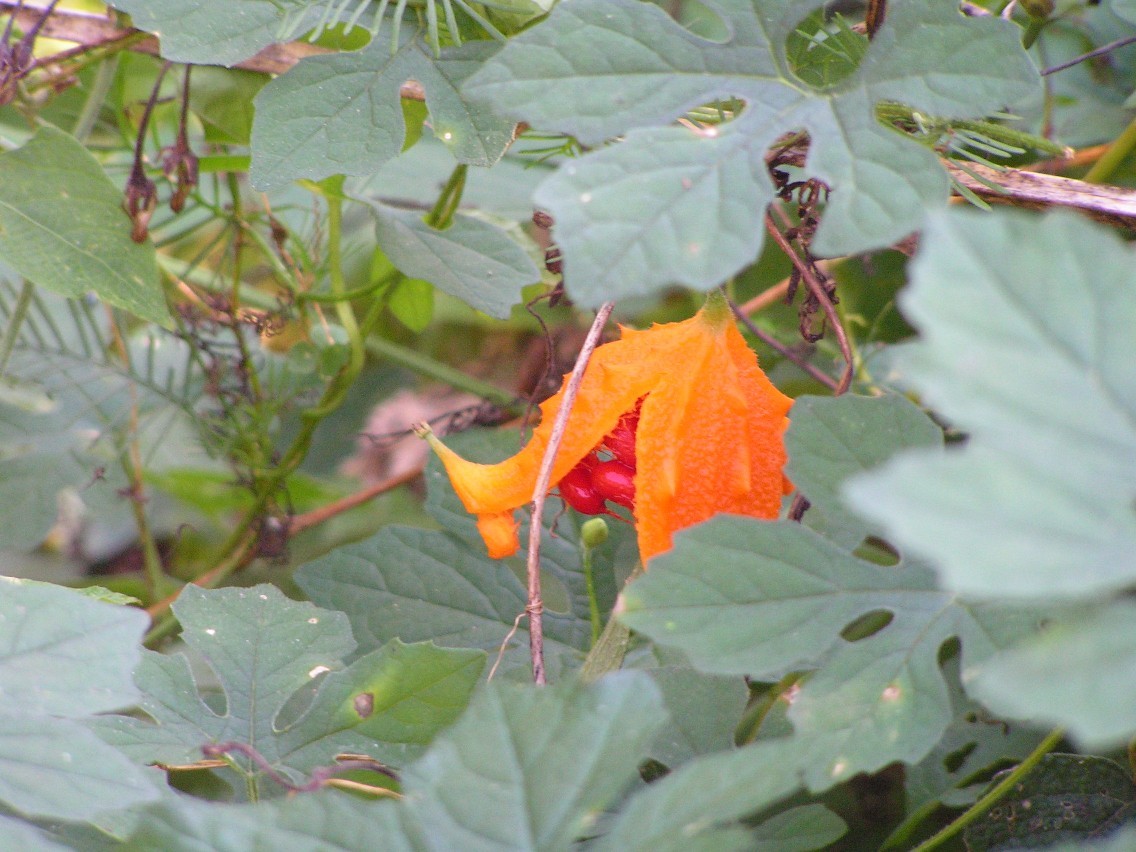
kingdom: Plantae
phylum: Tracheophyta
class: Magnoliopsida
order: Cucurbitales
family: Cucurbitaceae
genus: Momordica
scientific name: Momordica charantia
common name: Balsampear
